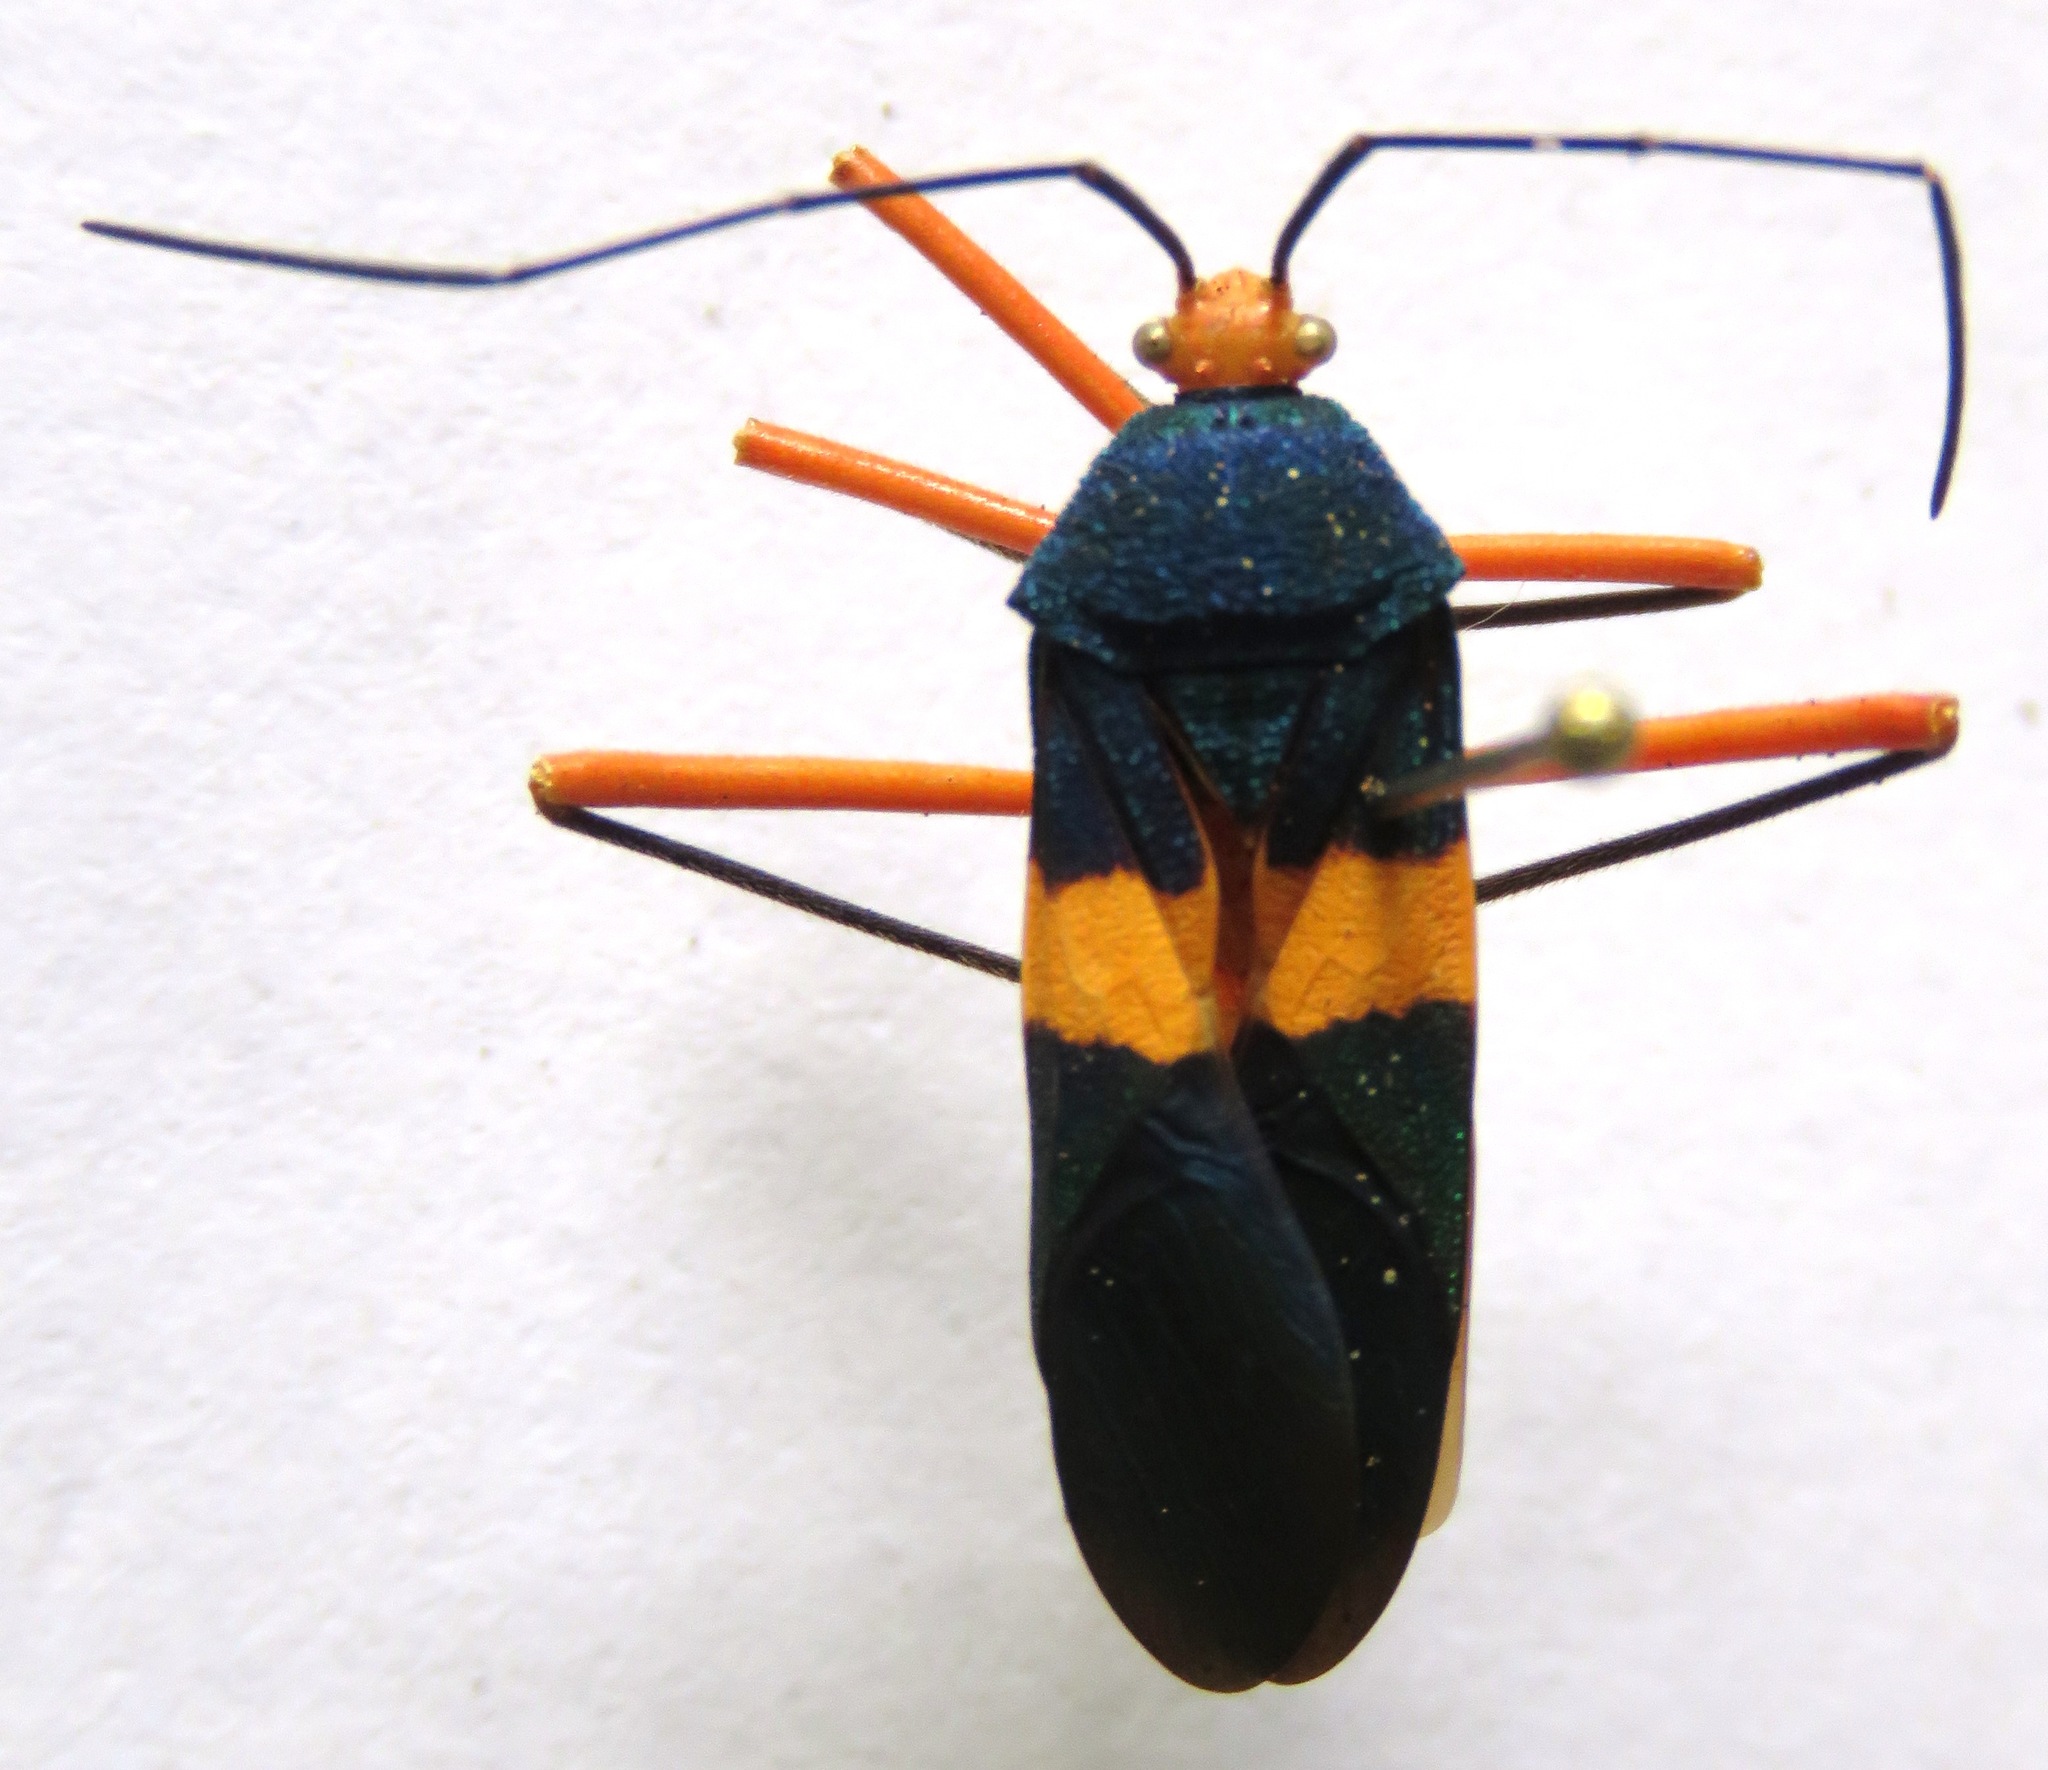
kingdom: Animalia
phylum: Arthropoda
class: Insecta
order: Hemiptera
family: Coreidae
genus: Paryphes
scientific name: Paryphes blandus
